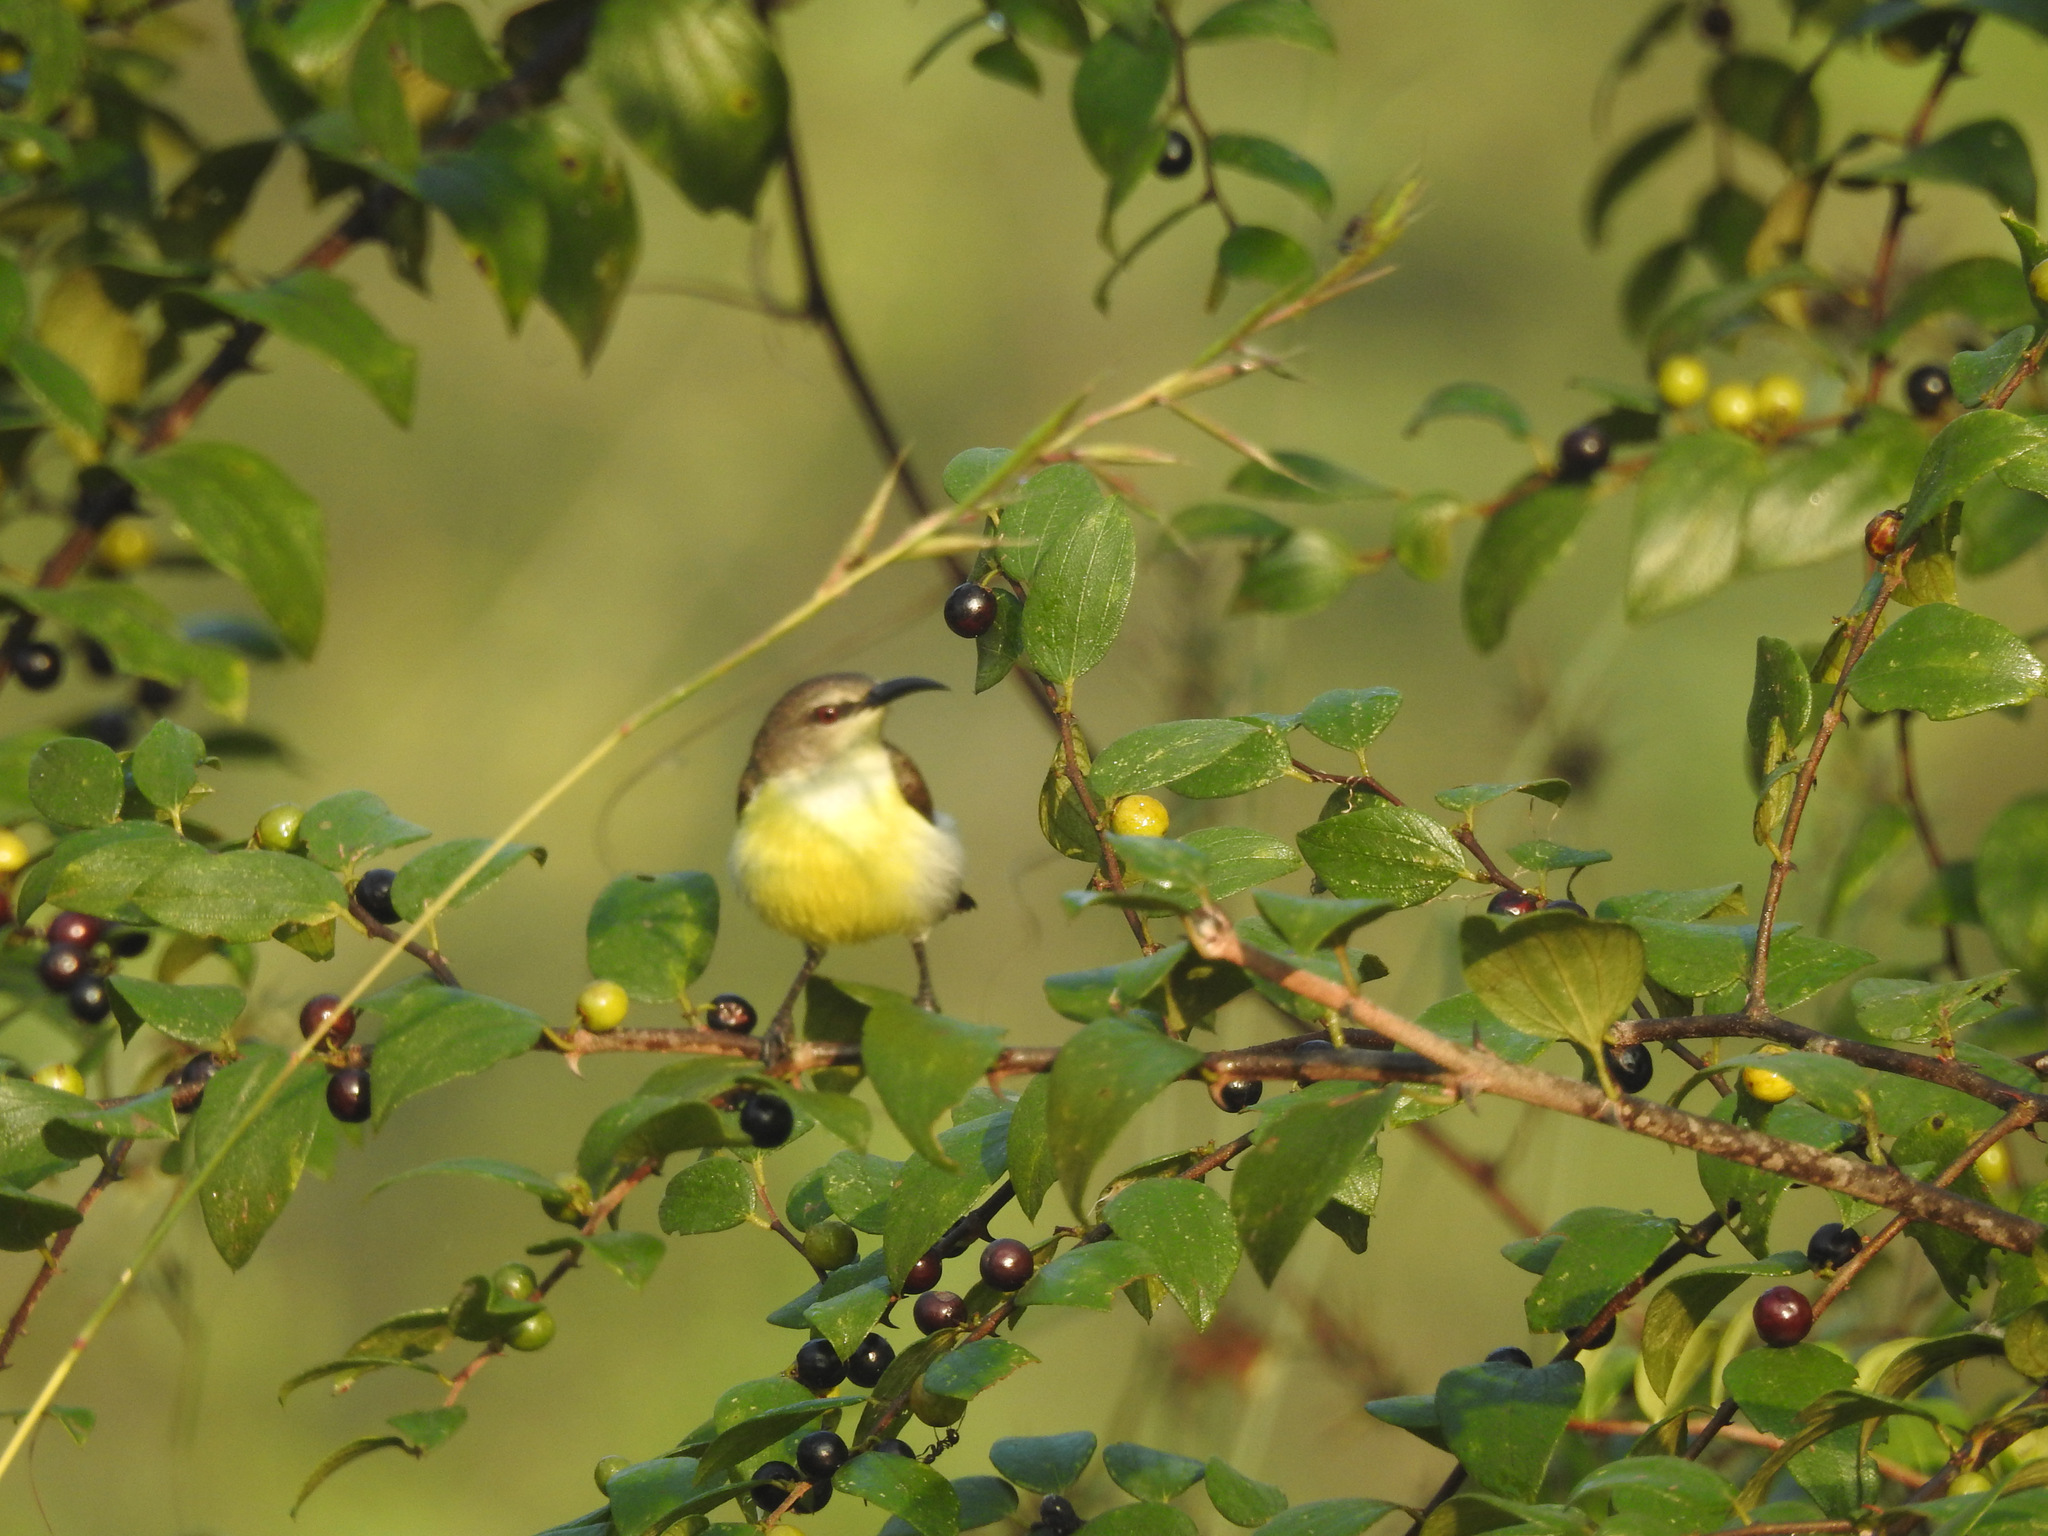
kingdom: Animalia
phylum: Chordata
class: Aves
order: Passeriformes
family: Nectariniidae
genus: Leptocoma
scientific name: Leptocoma zeylonica
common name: Purple-rumped sunbird
